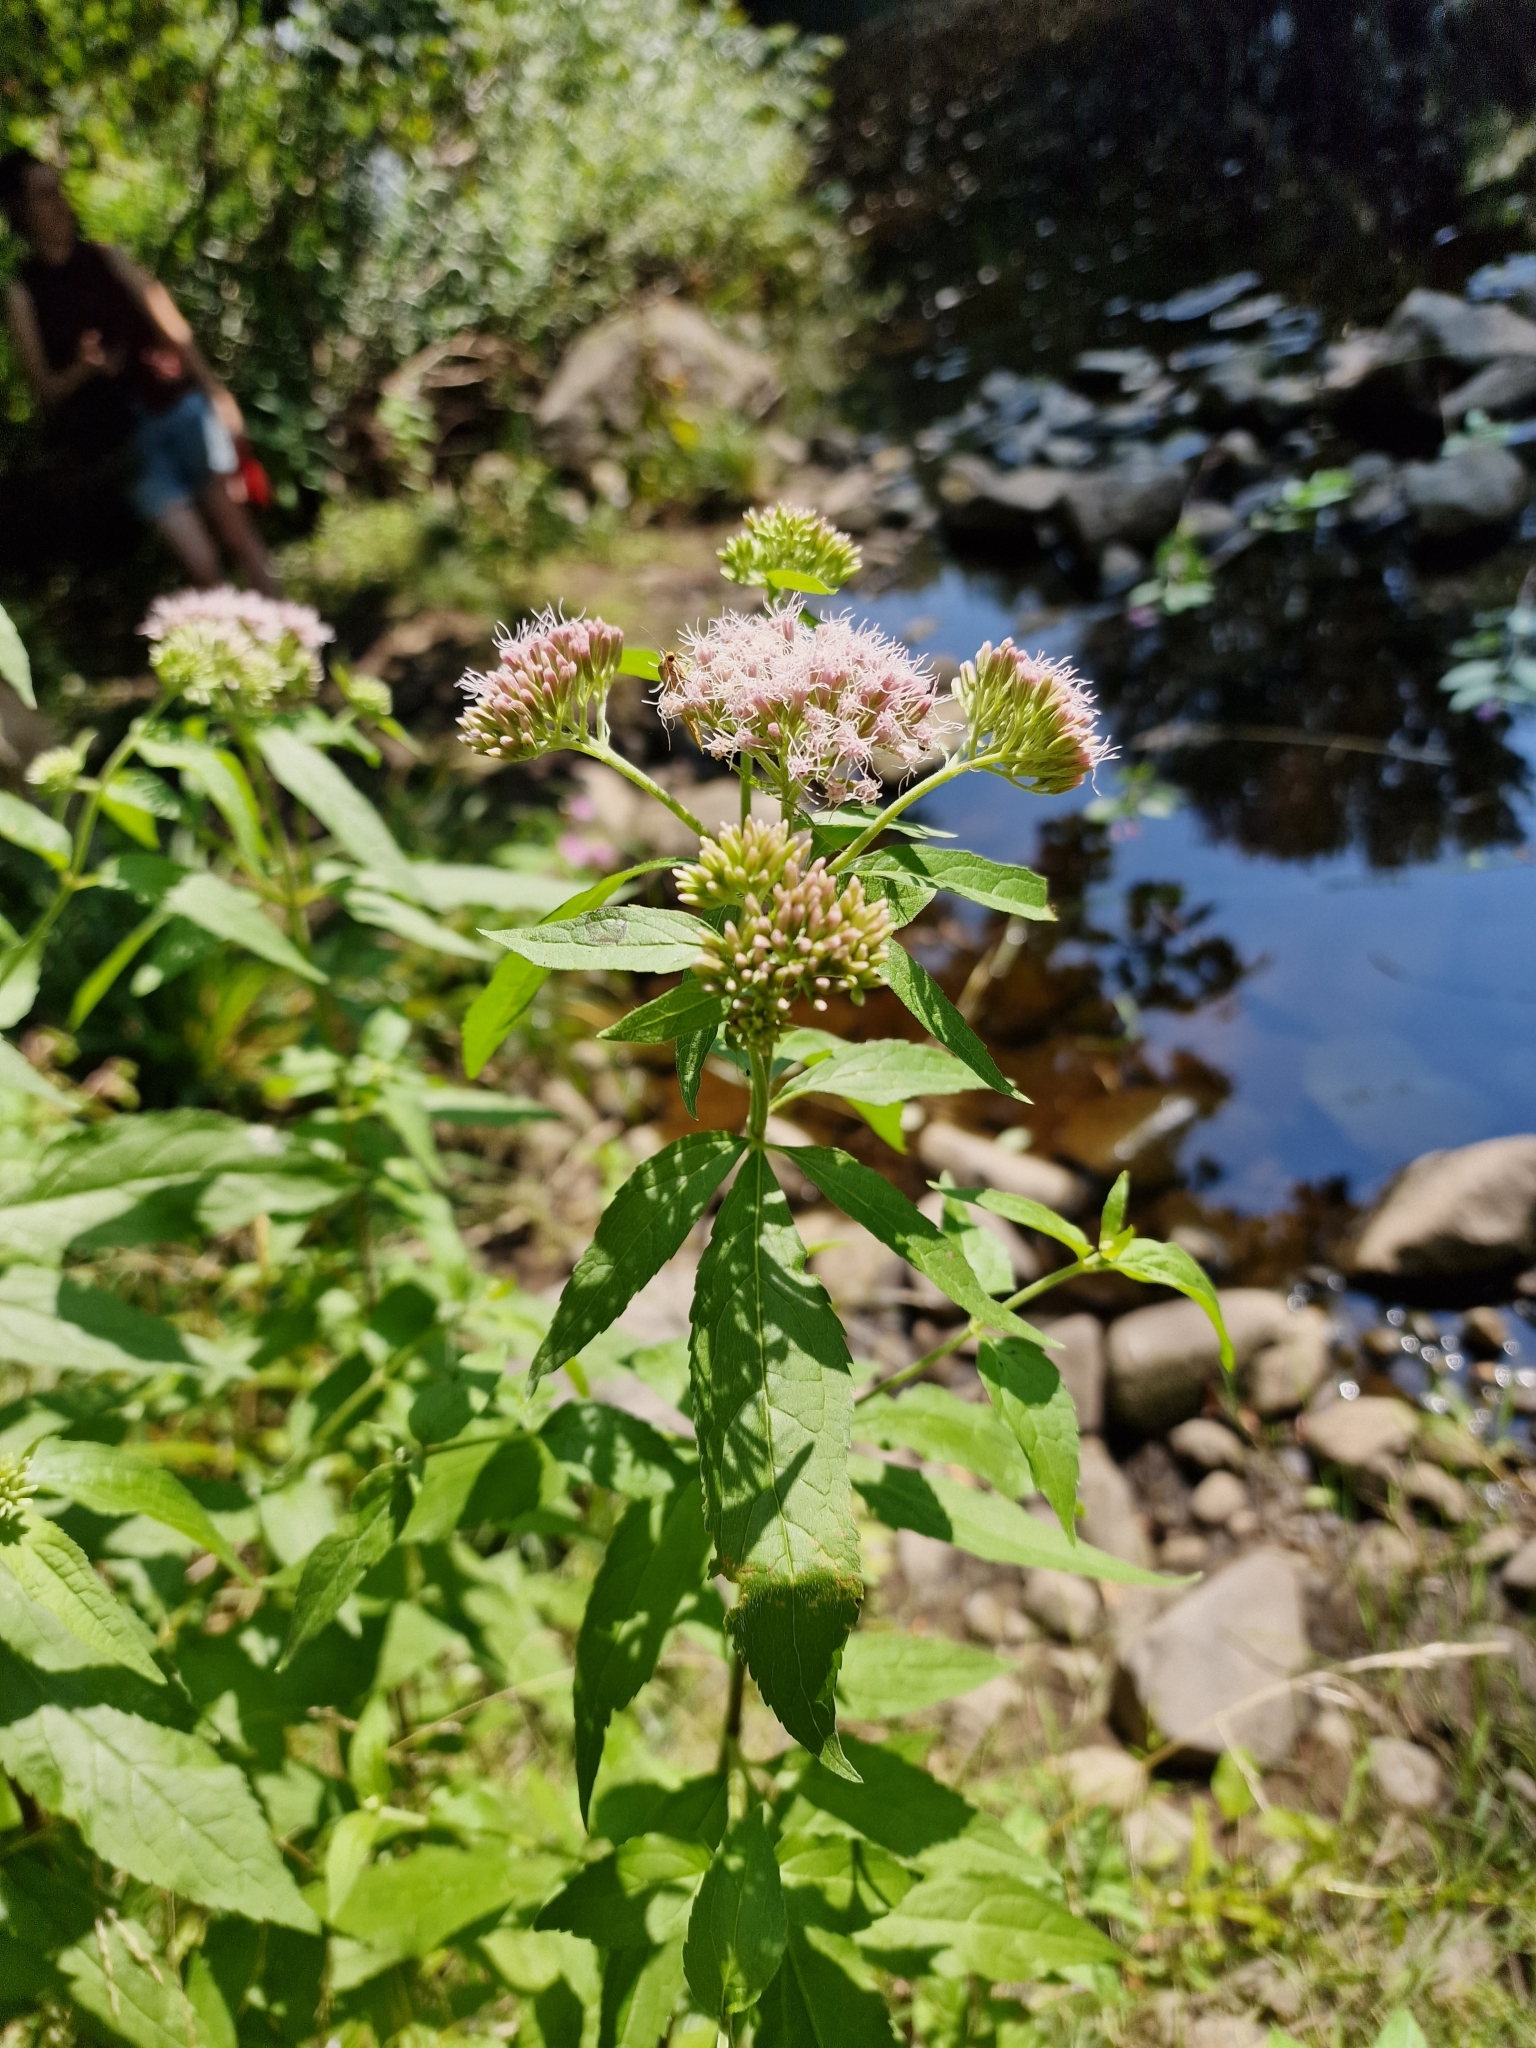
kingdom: Plantae
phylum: Tracheophyta
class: Magnoliopsida
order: Asterales
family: Asteraceae
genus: Eupatorium
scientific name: Eupatorium cannabinum
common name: Hemp-agrimony
